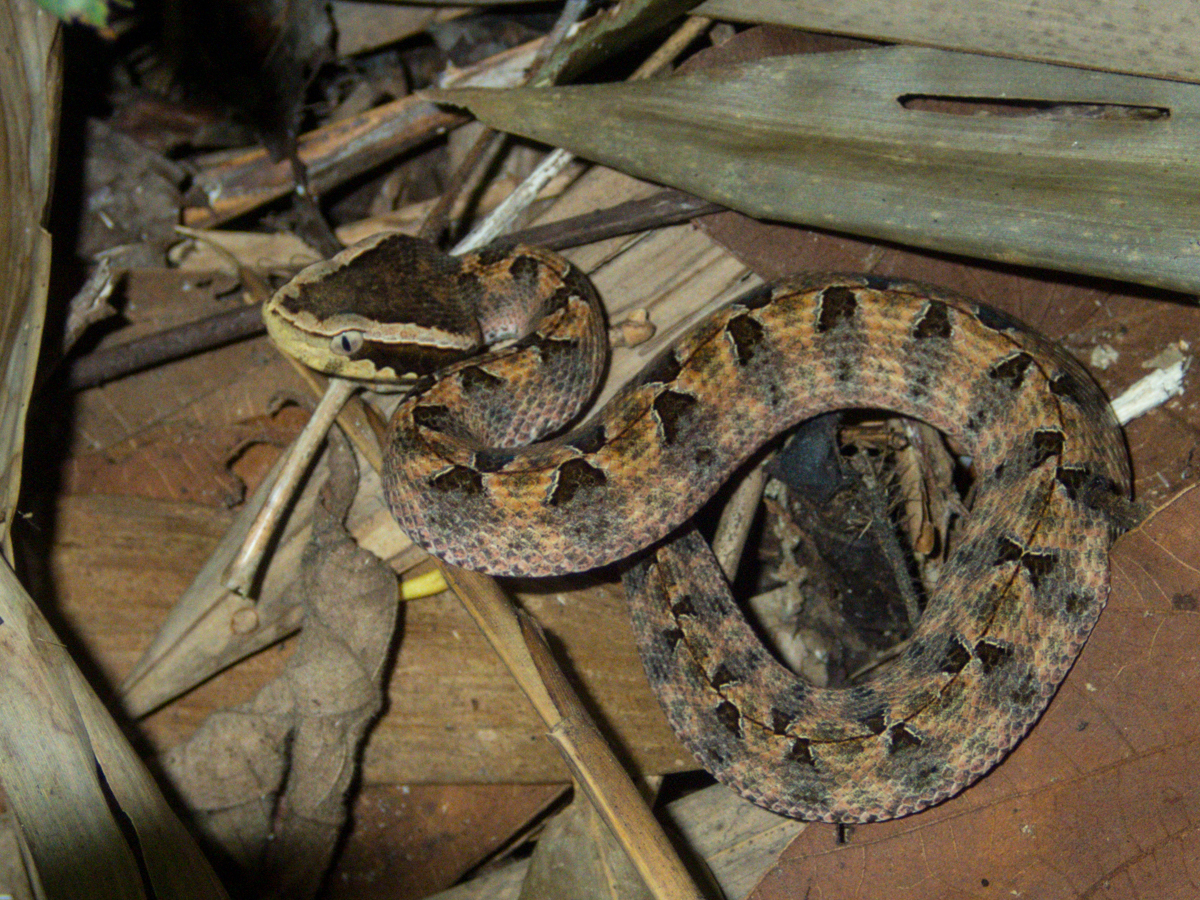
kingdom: Animalia
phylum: Chordata
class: Squamata
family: Viperidae
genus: Calloselasma
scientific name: Calloselasma rhodostoma
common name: Malayan pit viper
